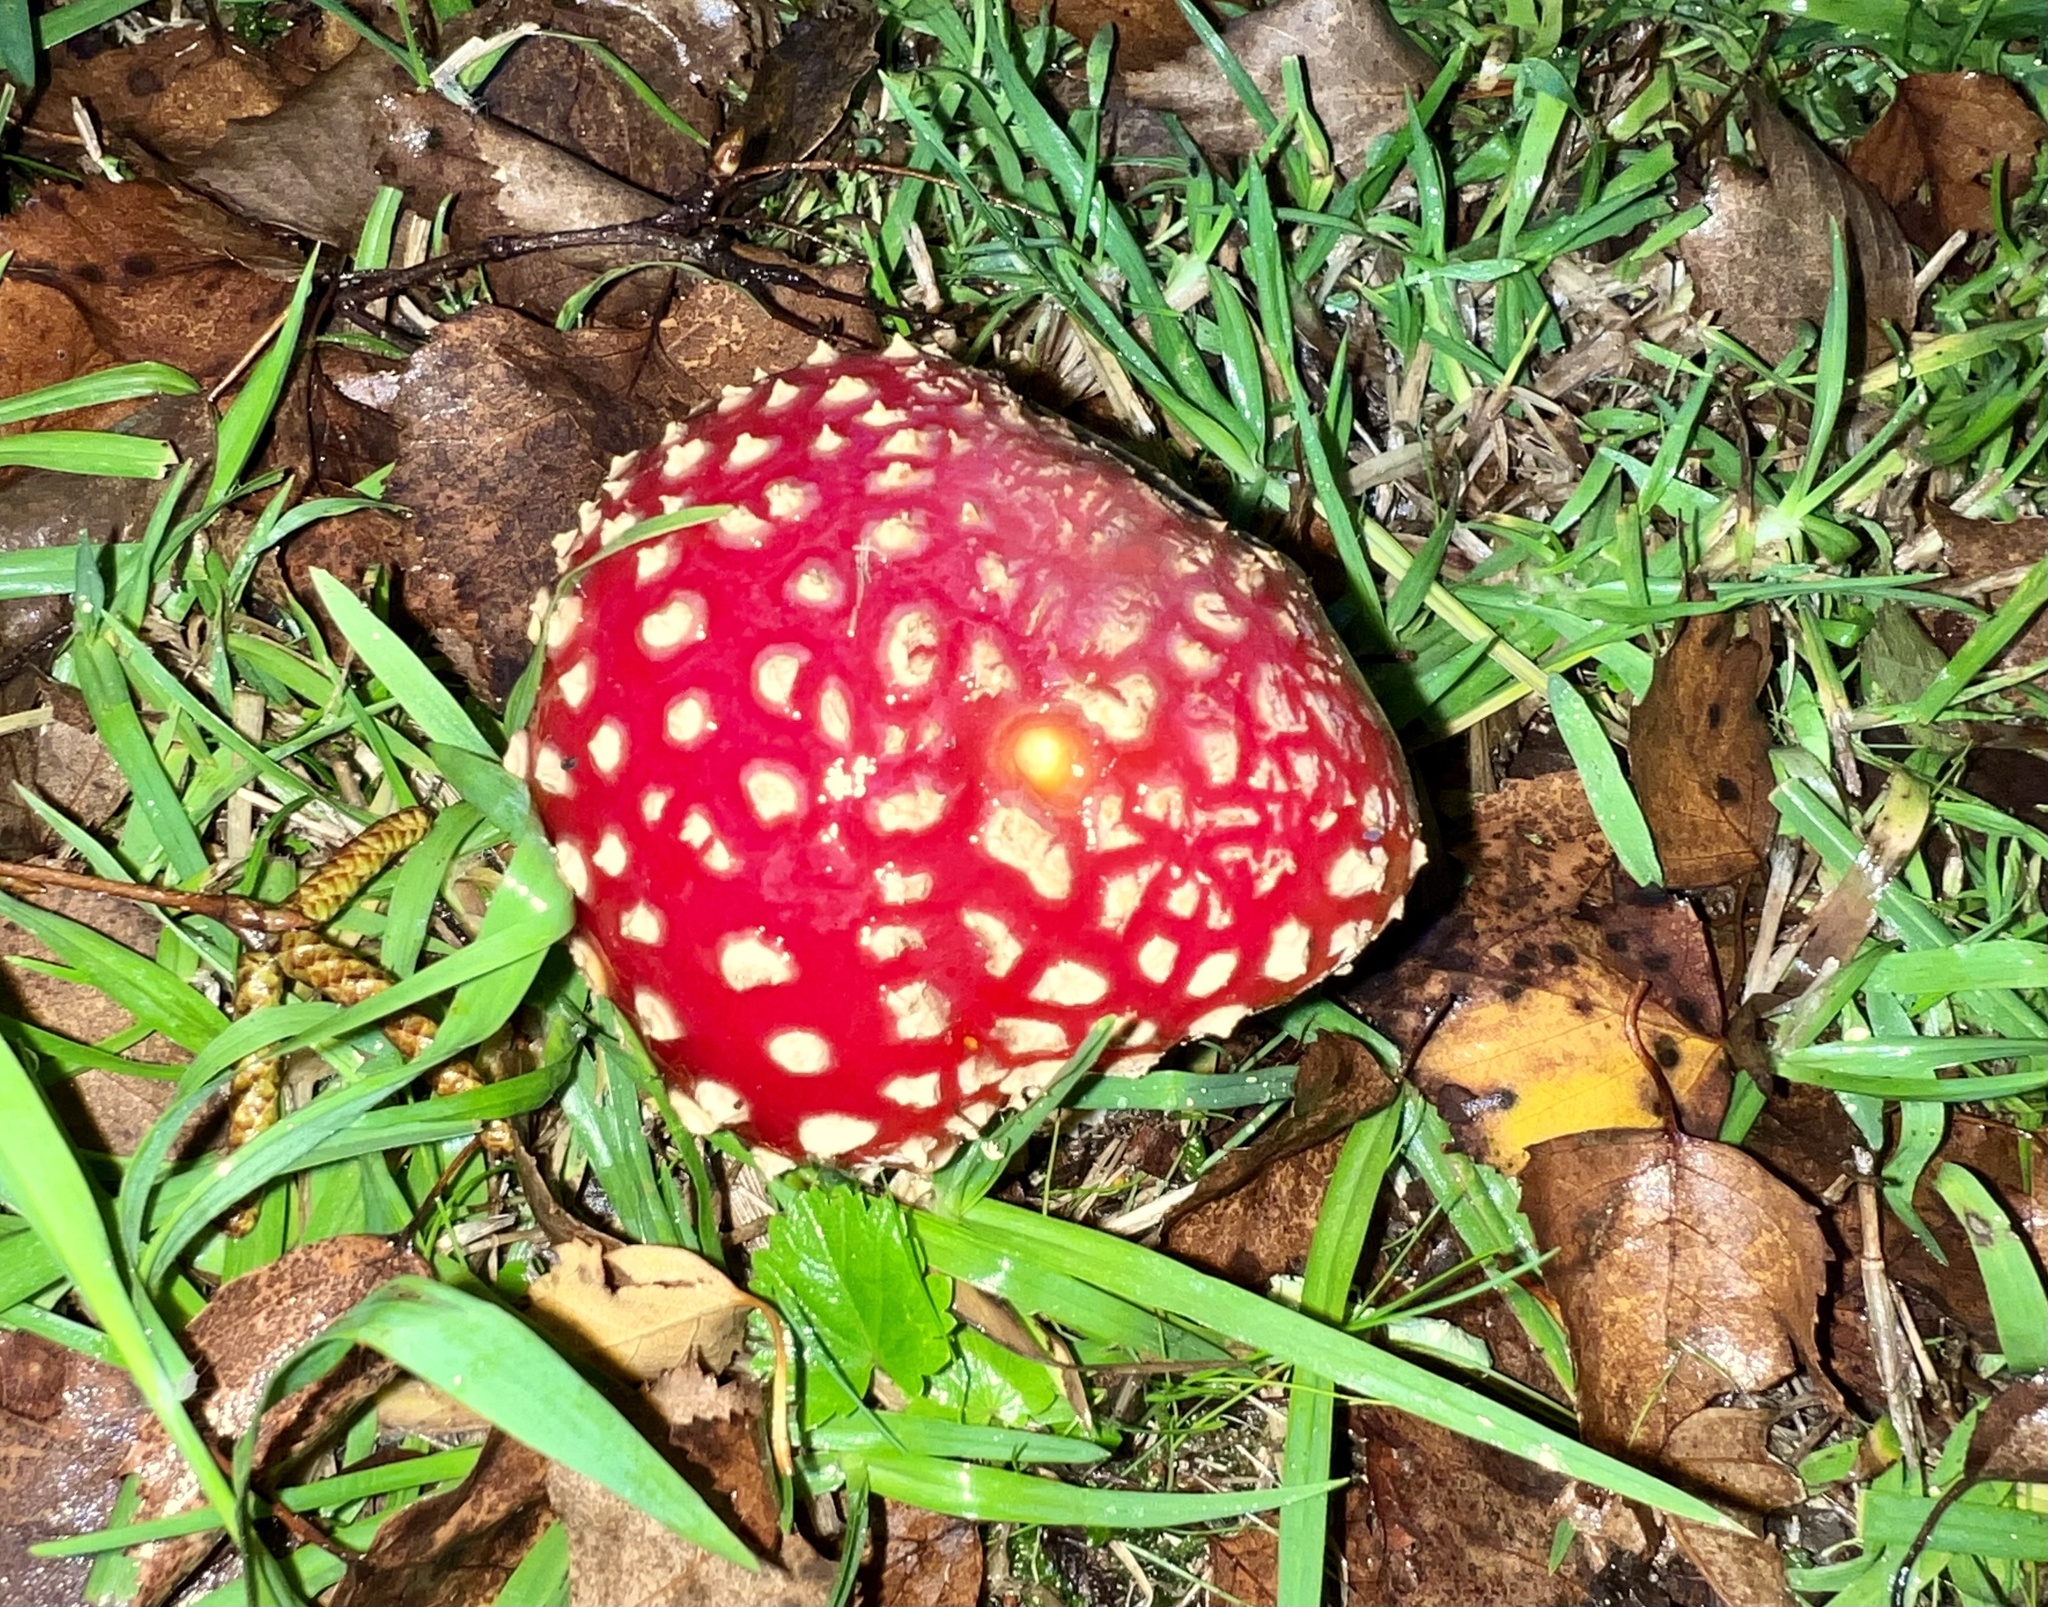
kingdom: Fungi
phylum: Basidiomycota
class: Agaricomycetes
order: Agaricales
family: Amanitaceae
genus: Amanita
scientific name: Amanita muscaria
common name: Fly agaric
